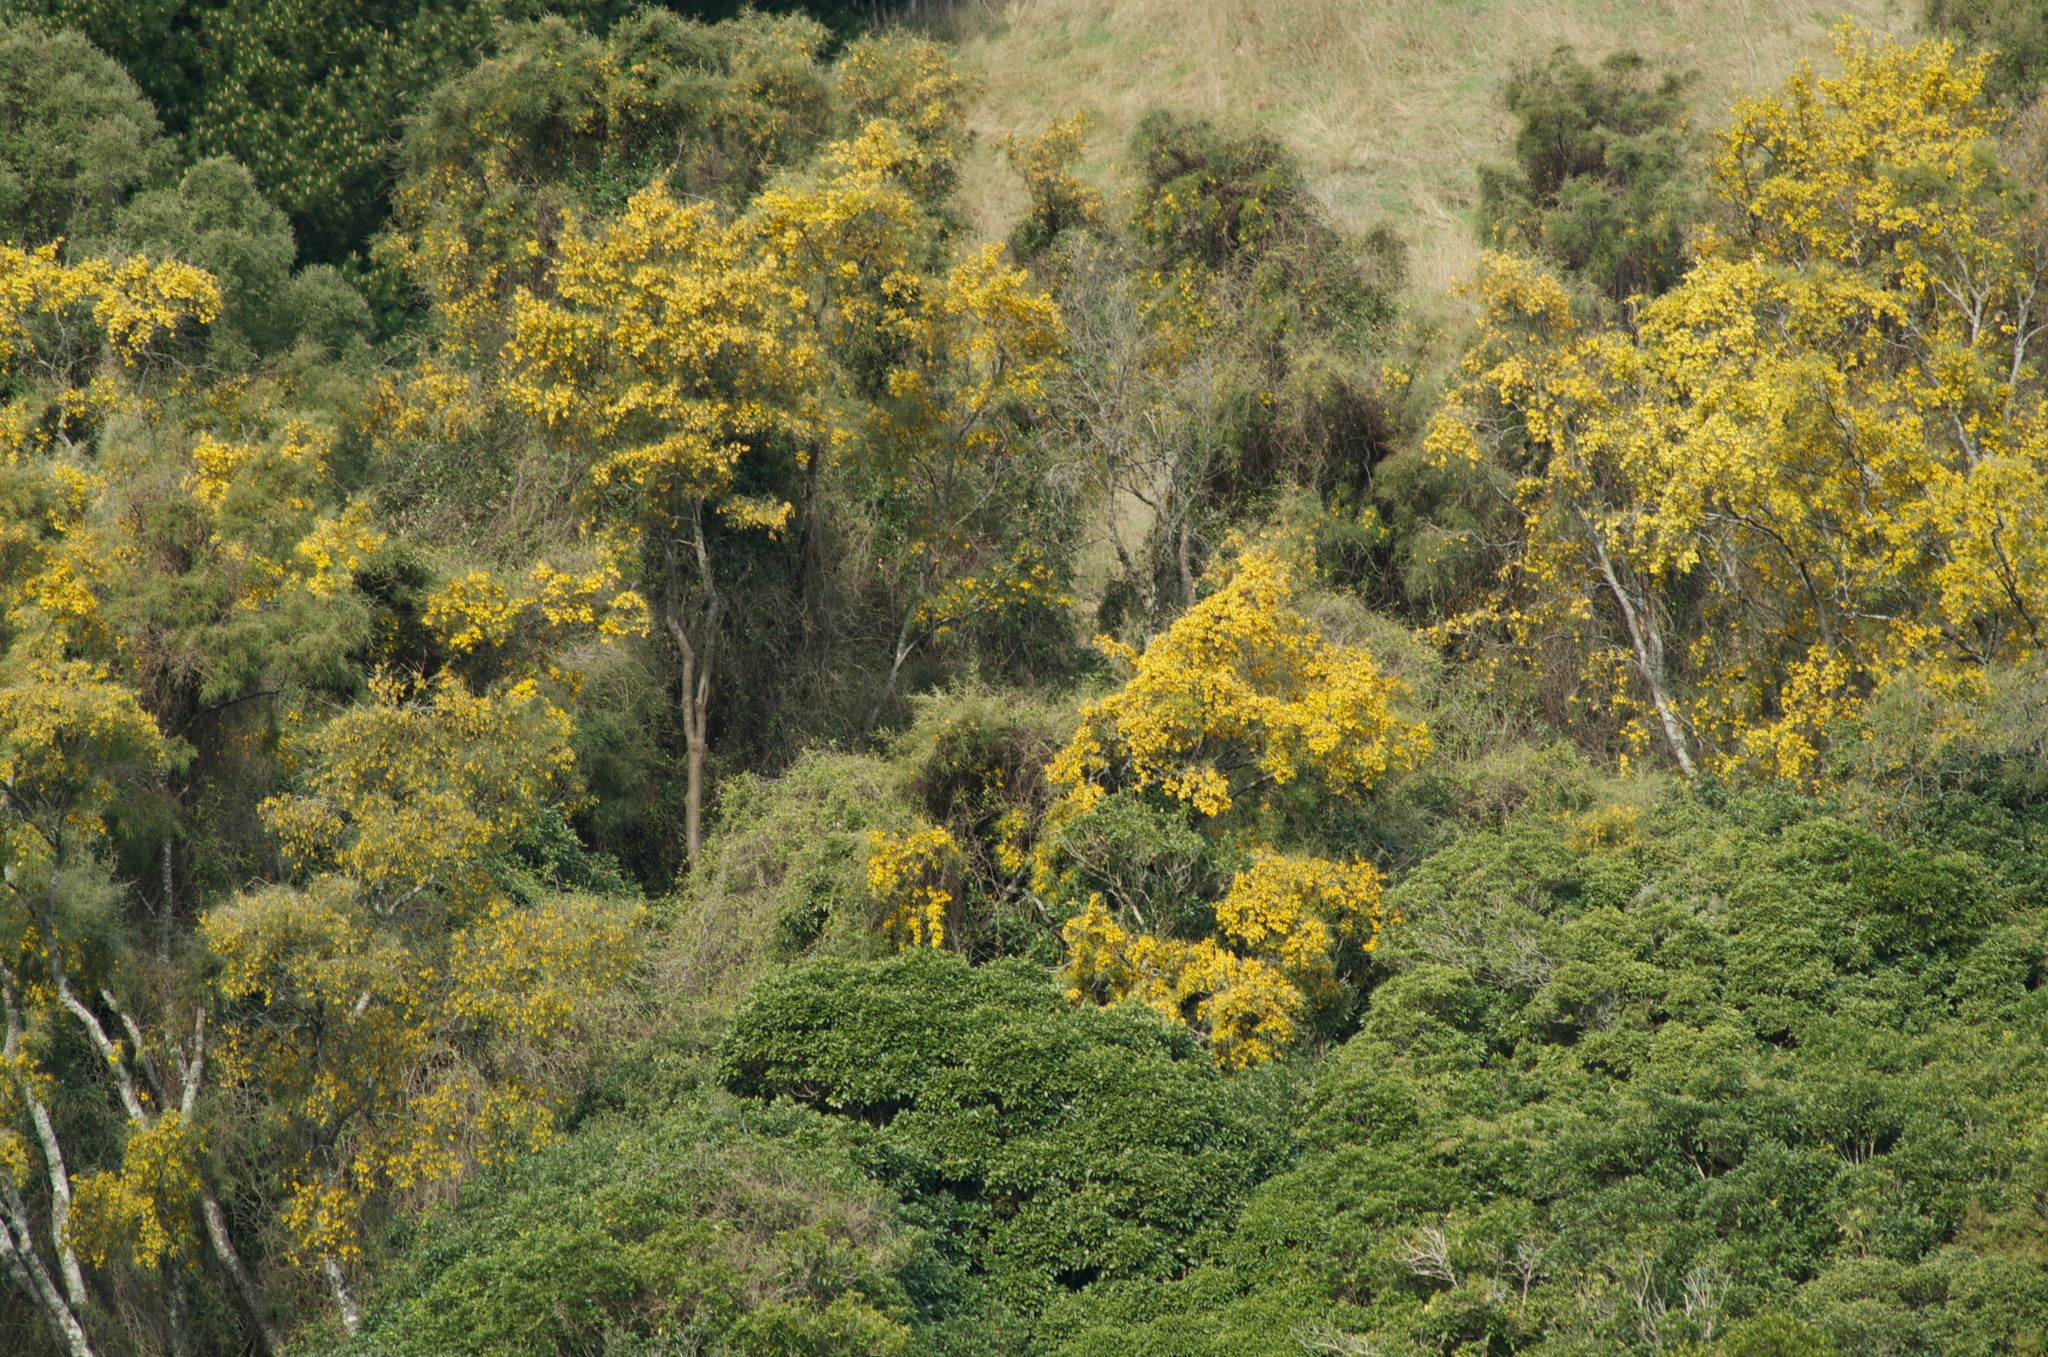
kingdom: Plantae
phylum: Tracheophyta
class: Magnoliopsida
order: Fabales
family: Fabaceae
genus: Sophora
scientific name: Sophora microphylla
